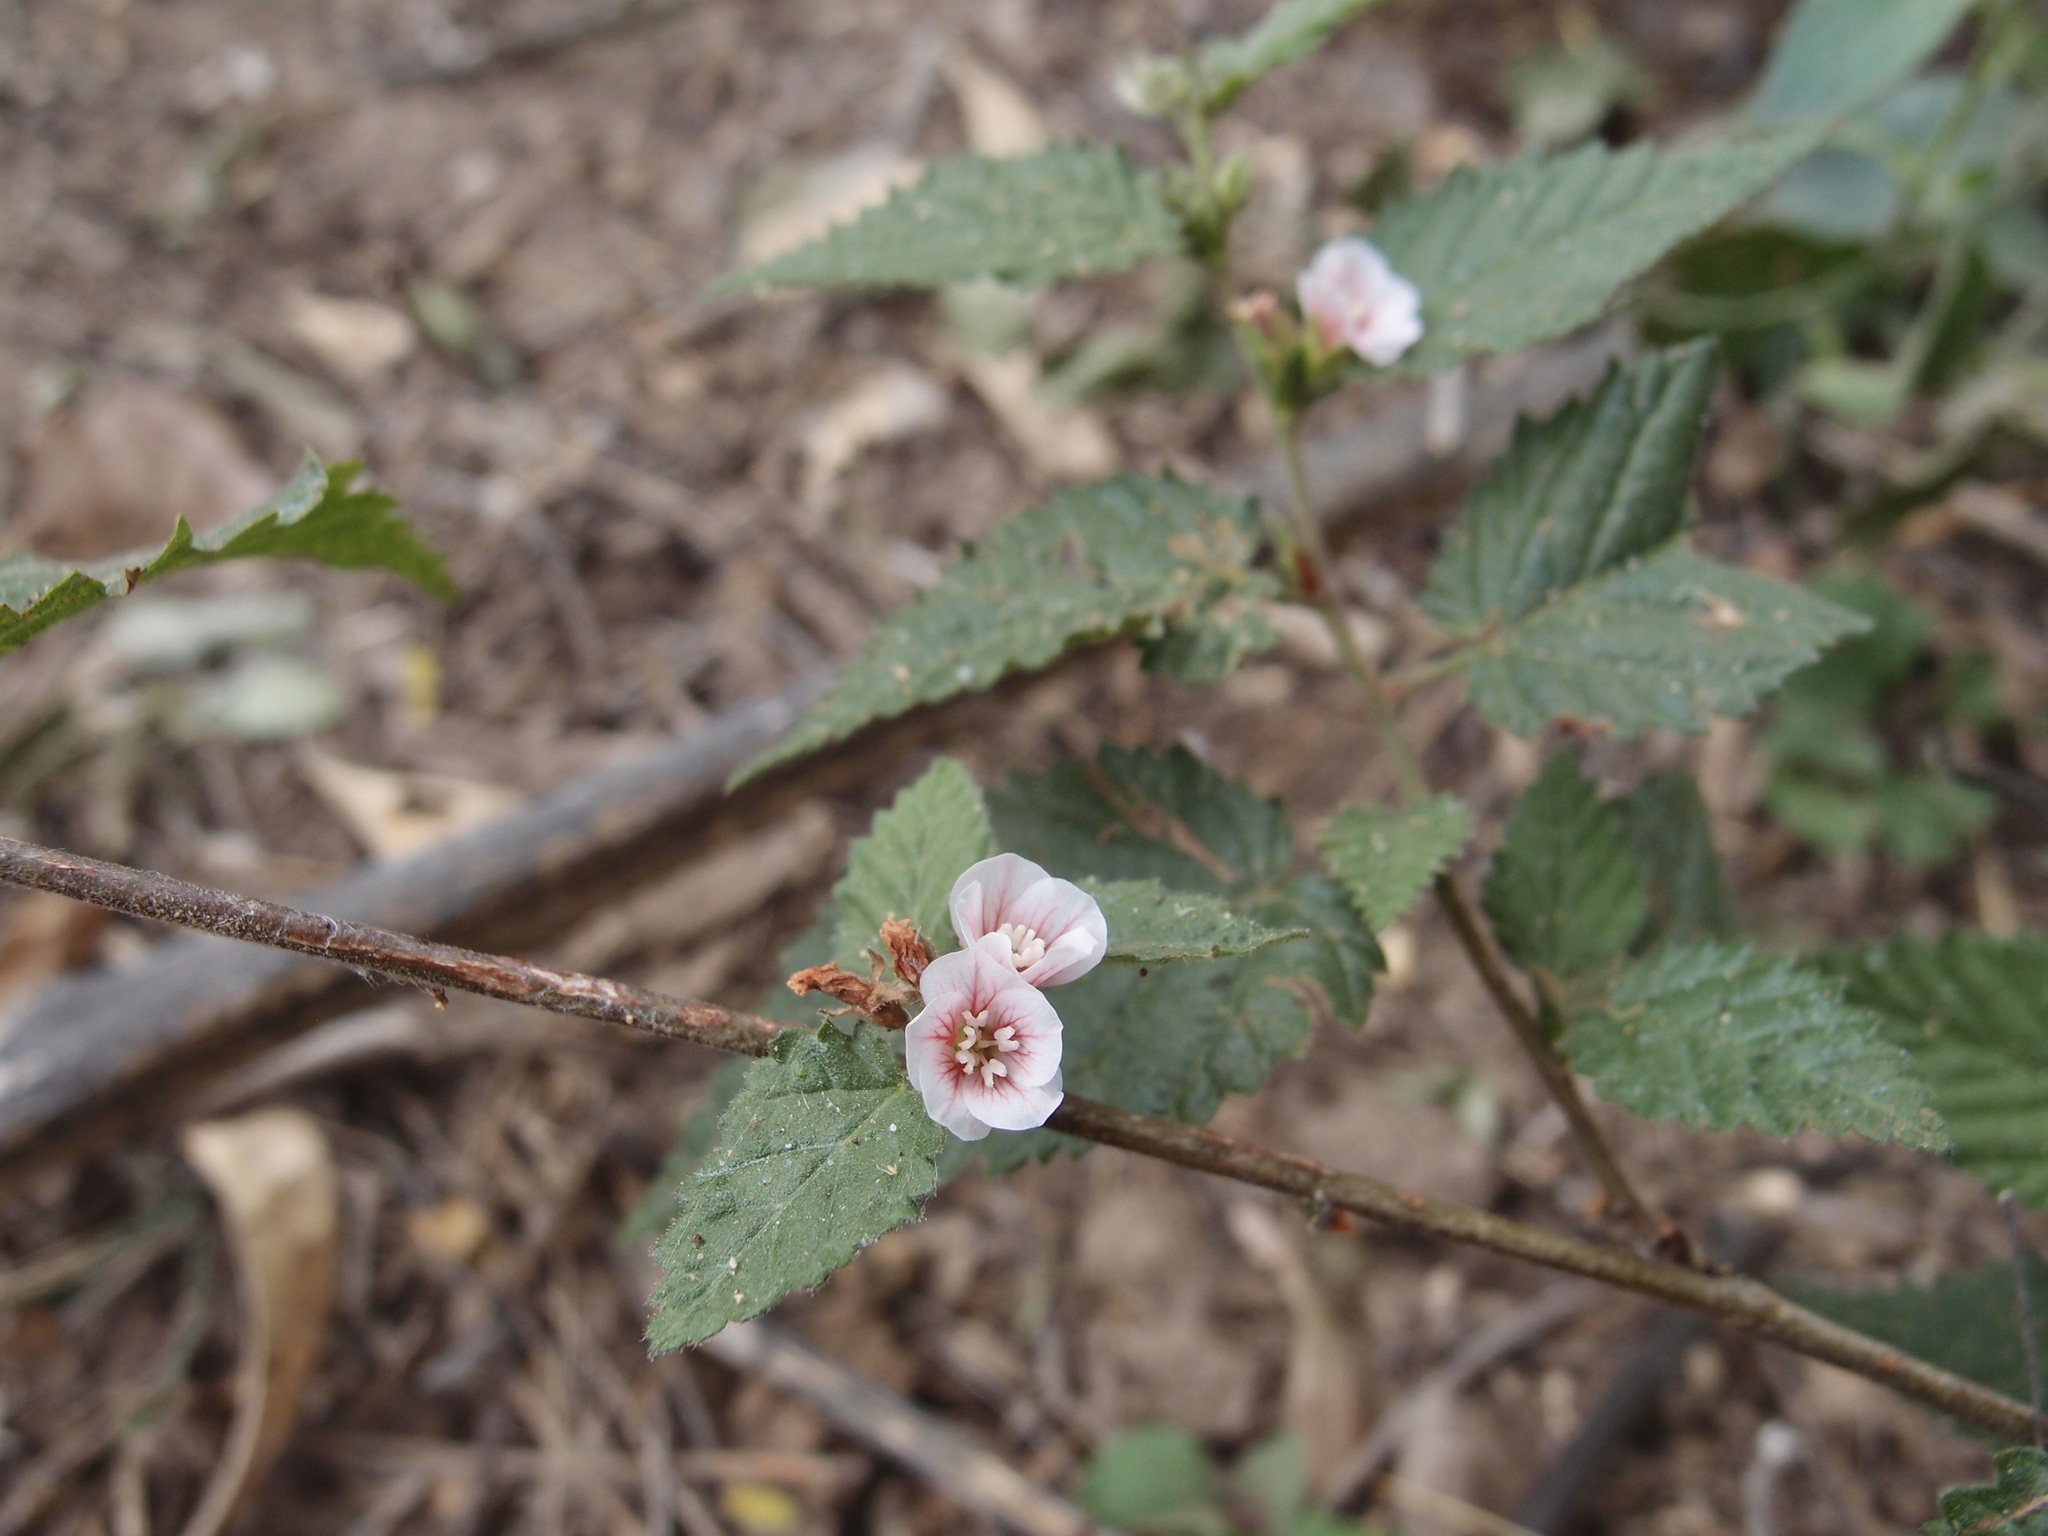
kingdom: Plantae
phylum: Tracheophyta
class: Magnoliopsida
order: Malvales
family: Malvaceae
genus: Melochia
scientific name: Melochia tomentella
